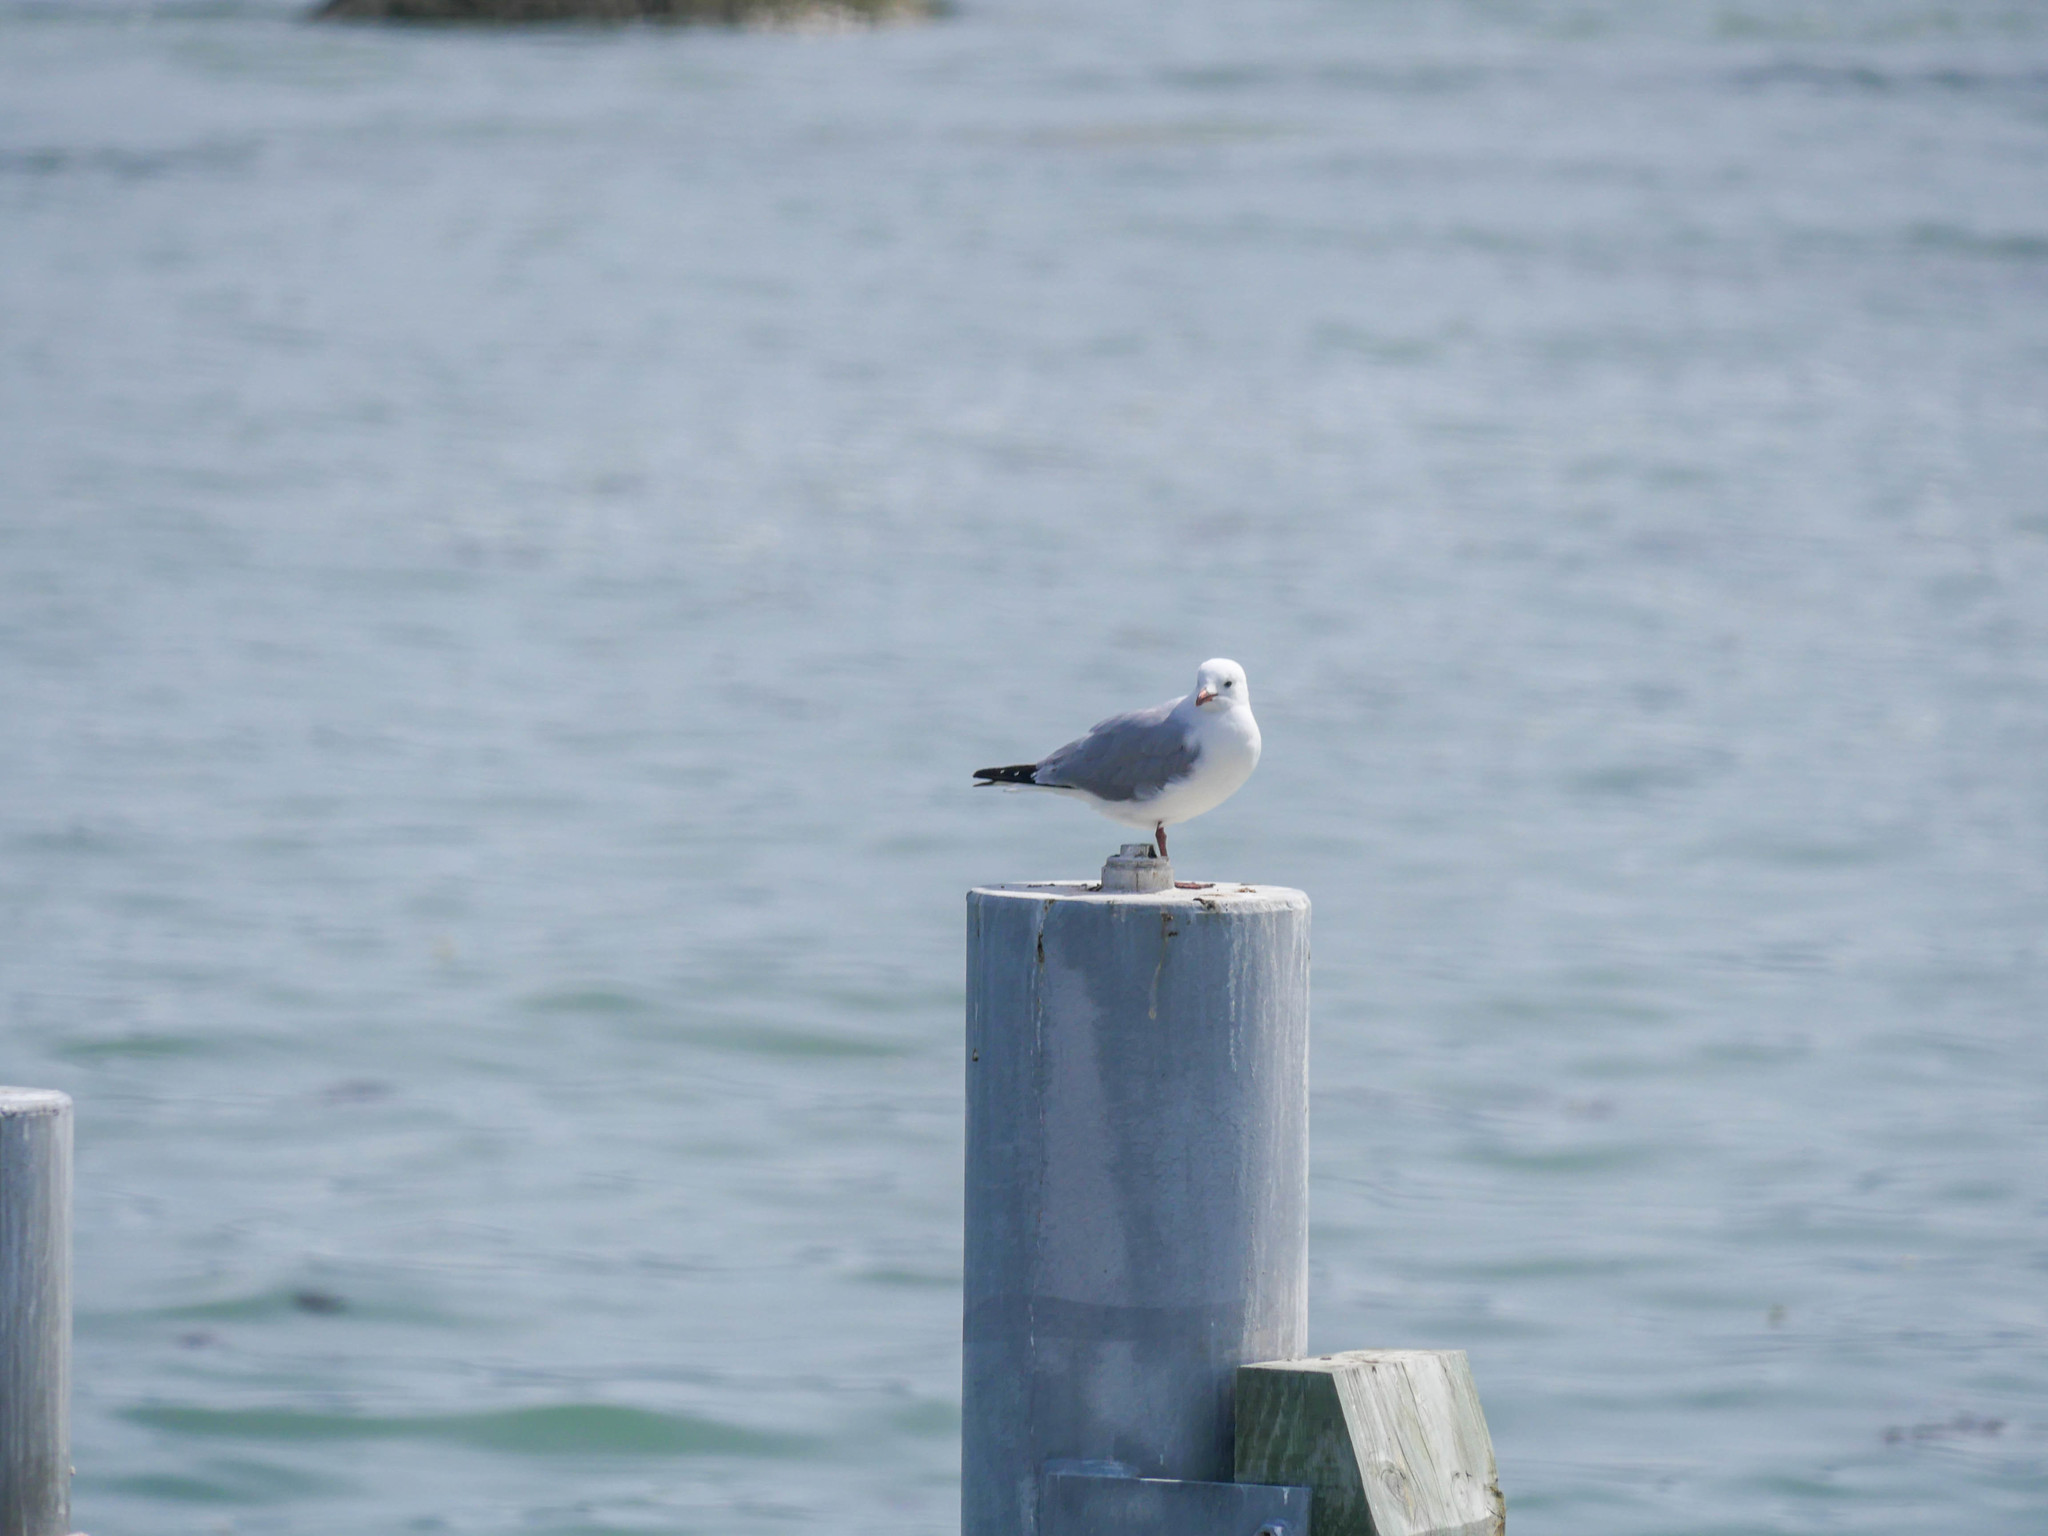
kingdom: Animalia
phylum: Chordata
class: Aves
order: Charadriiformes
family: Laridae
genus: Chroicocephalus
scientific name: Chroicocephalus novaehollandiae
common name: Silver gull
